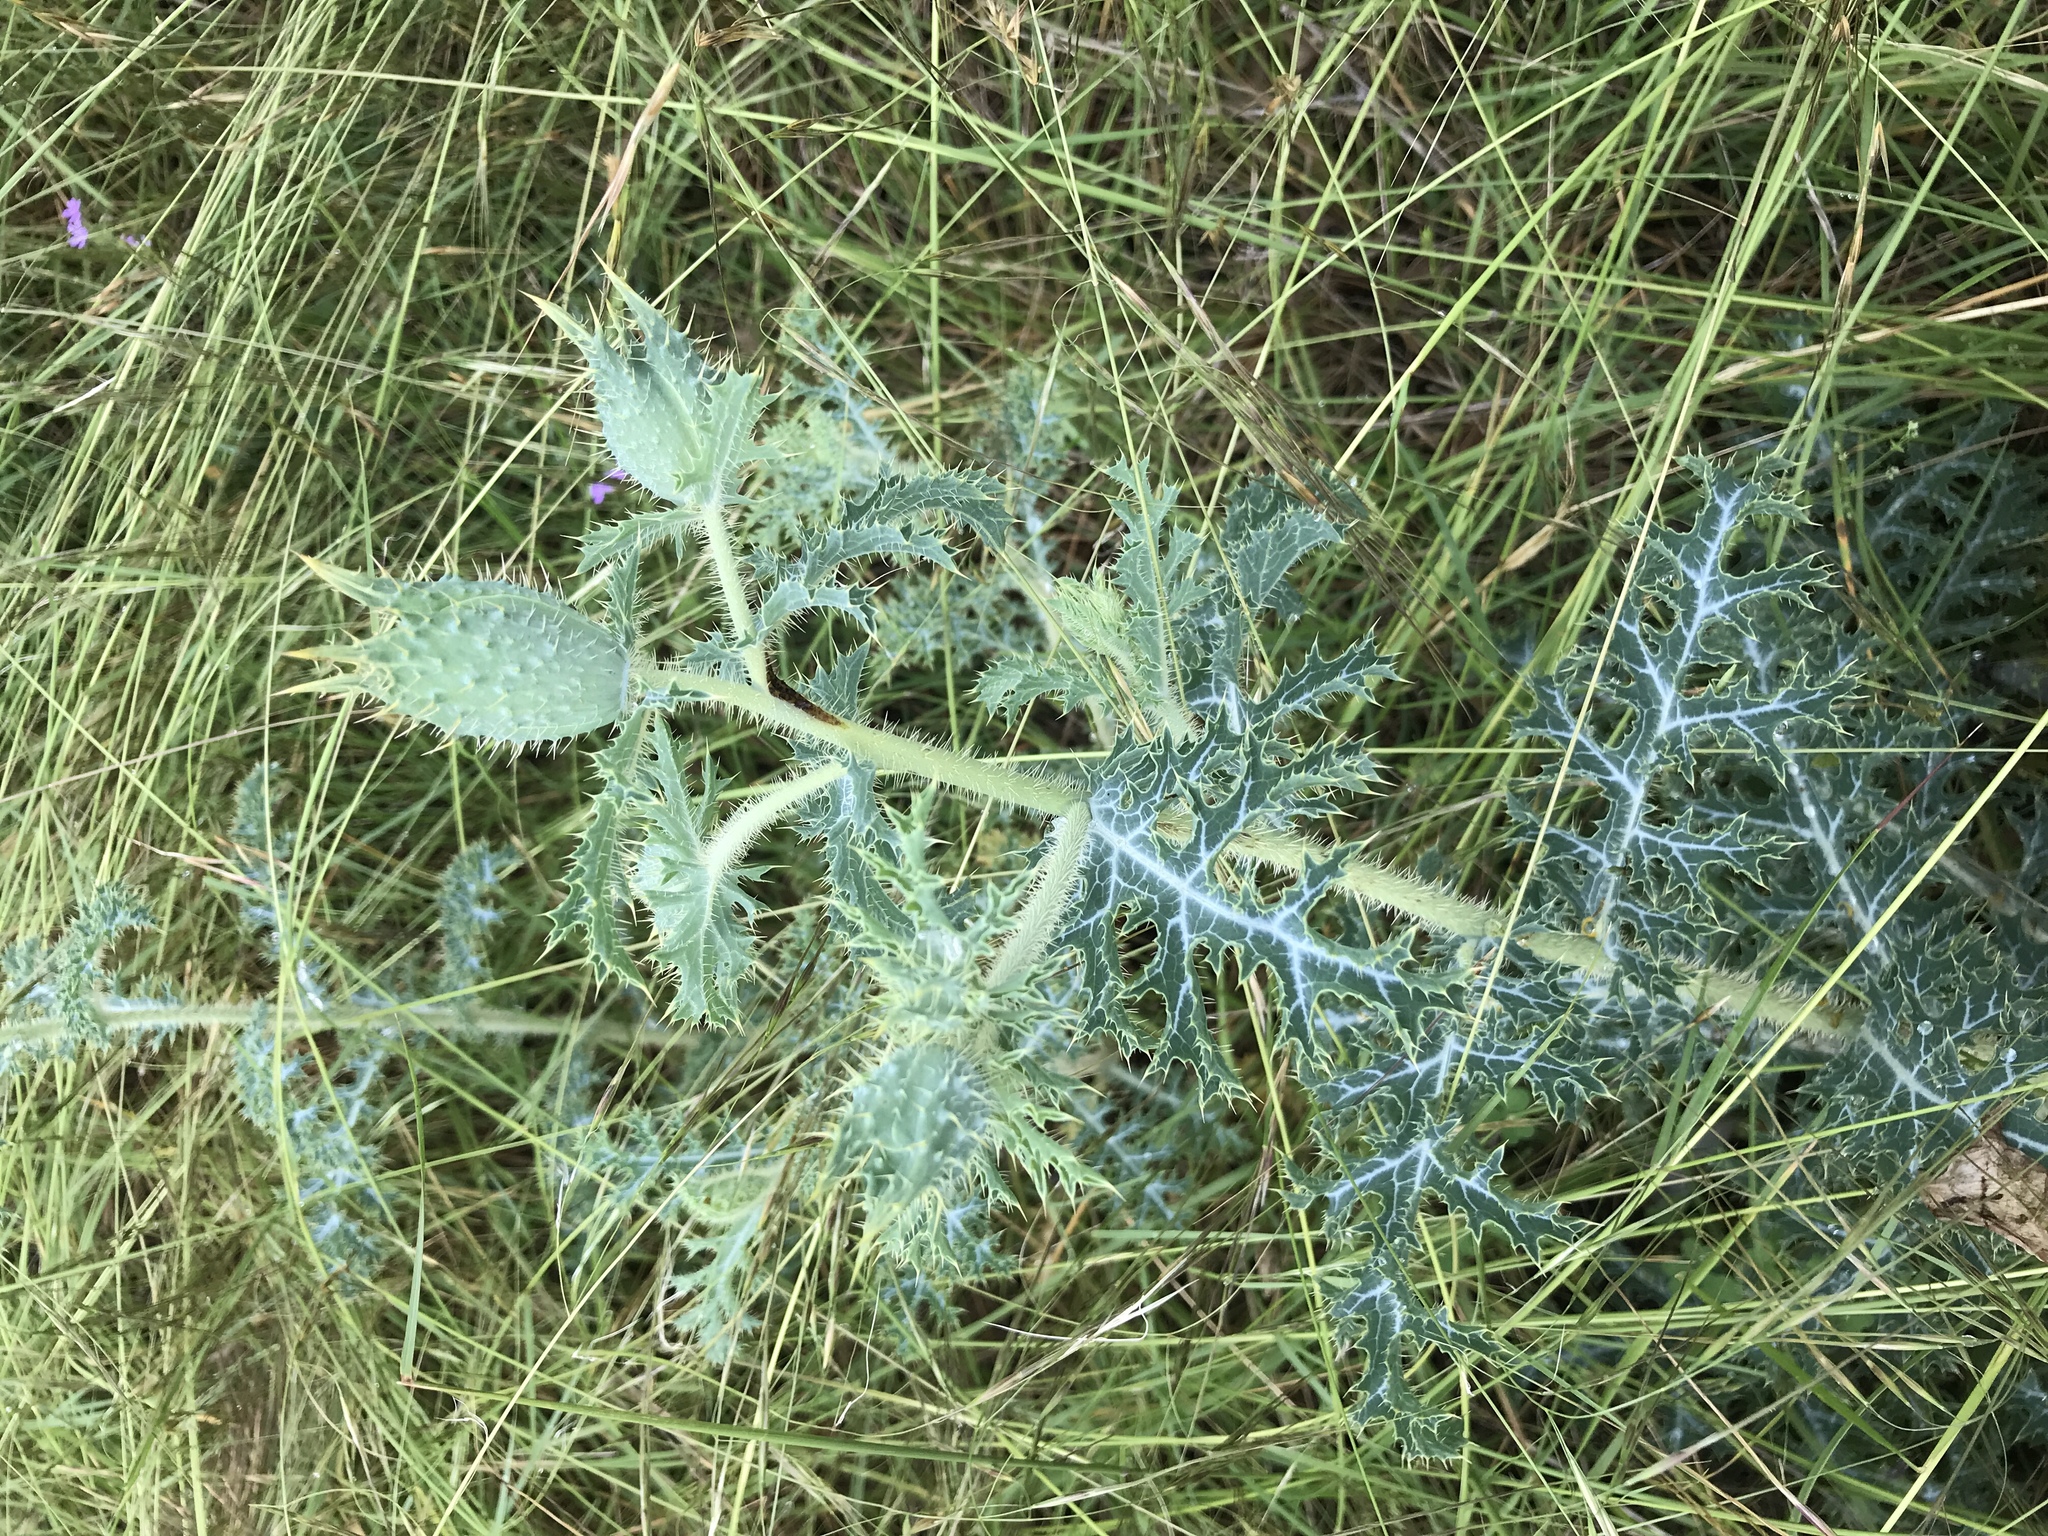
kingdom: Plantae
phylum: Tracheophyta
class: Magnoliopsida
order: Ranunculales
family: Papaveraceae
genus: Argemone
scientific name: Argemone albiflora
